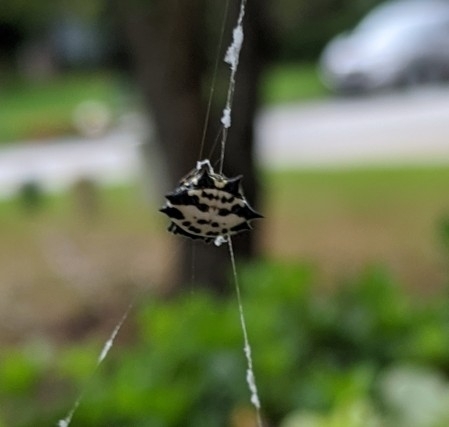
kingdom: Animalia
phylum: Arthropoda
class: Arachnida
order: Araneae
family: Araneidae
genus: Gasteracantha
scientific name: Gasteracantha cancriformis
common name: Orb weavers
